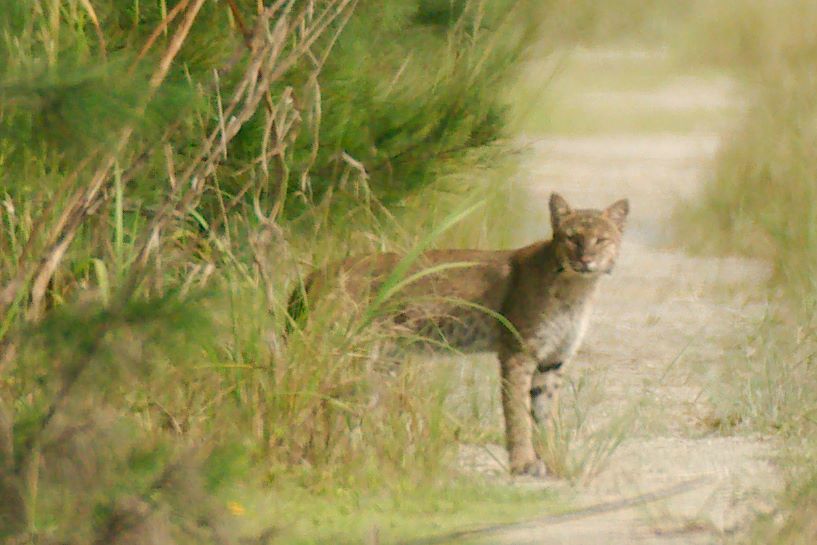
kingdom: Animalia
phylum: Chordata
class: Mammalia
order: Carnivora
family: Felidae
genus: Lynx
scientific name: Lynx rufus
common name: Bobcat
